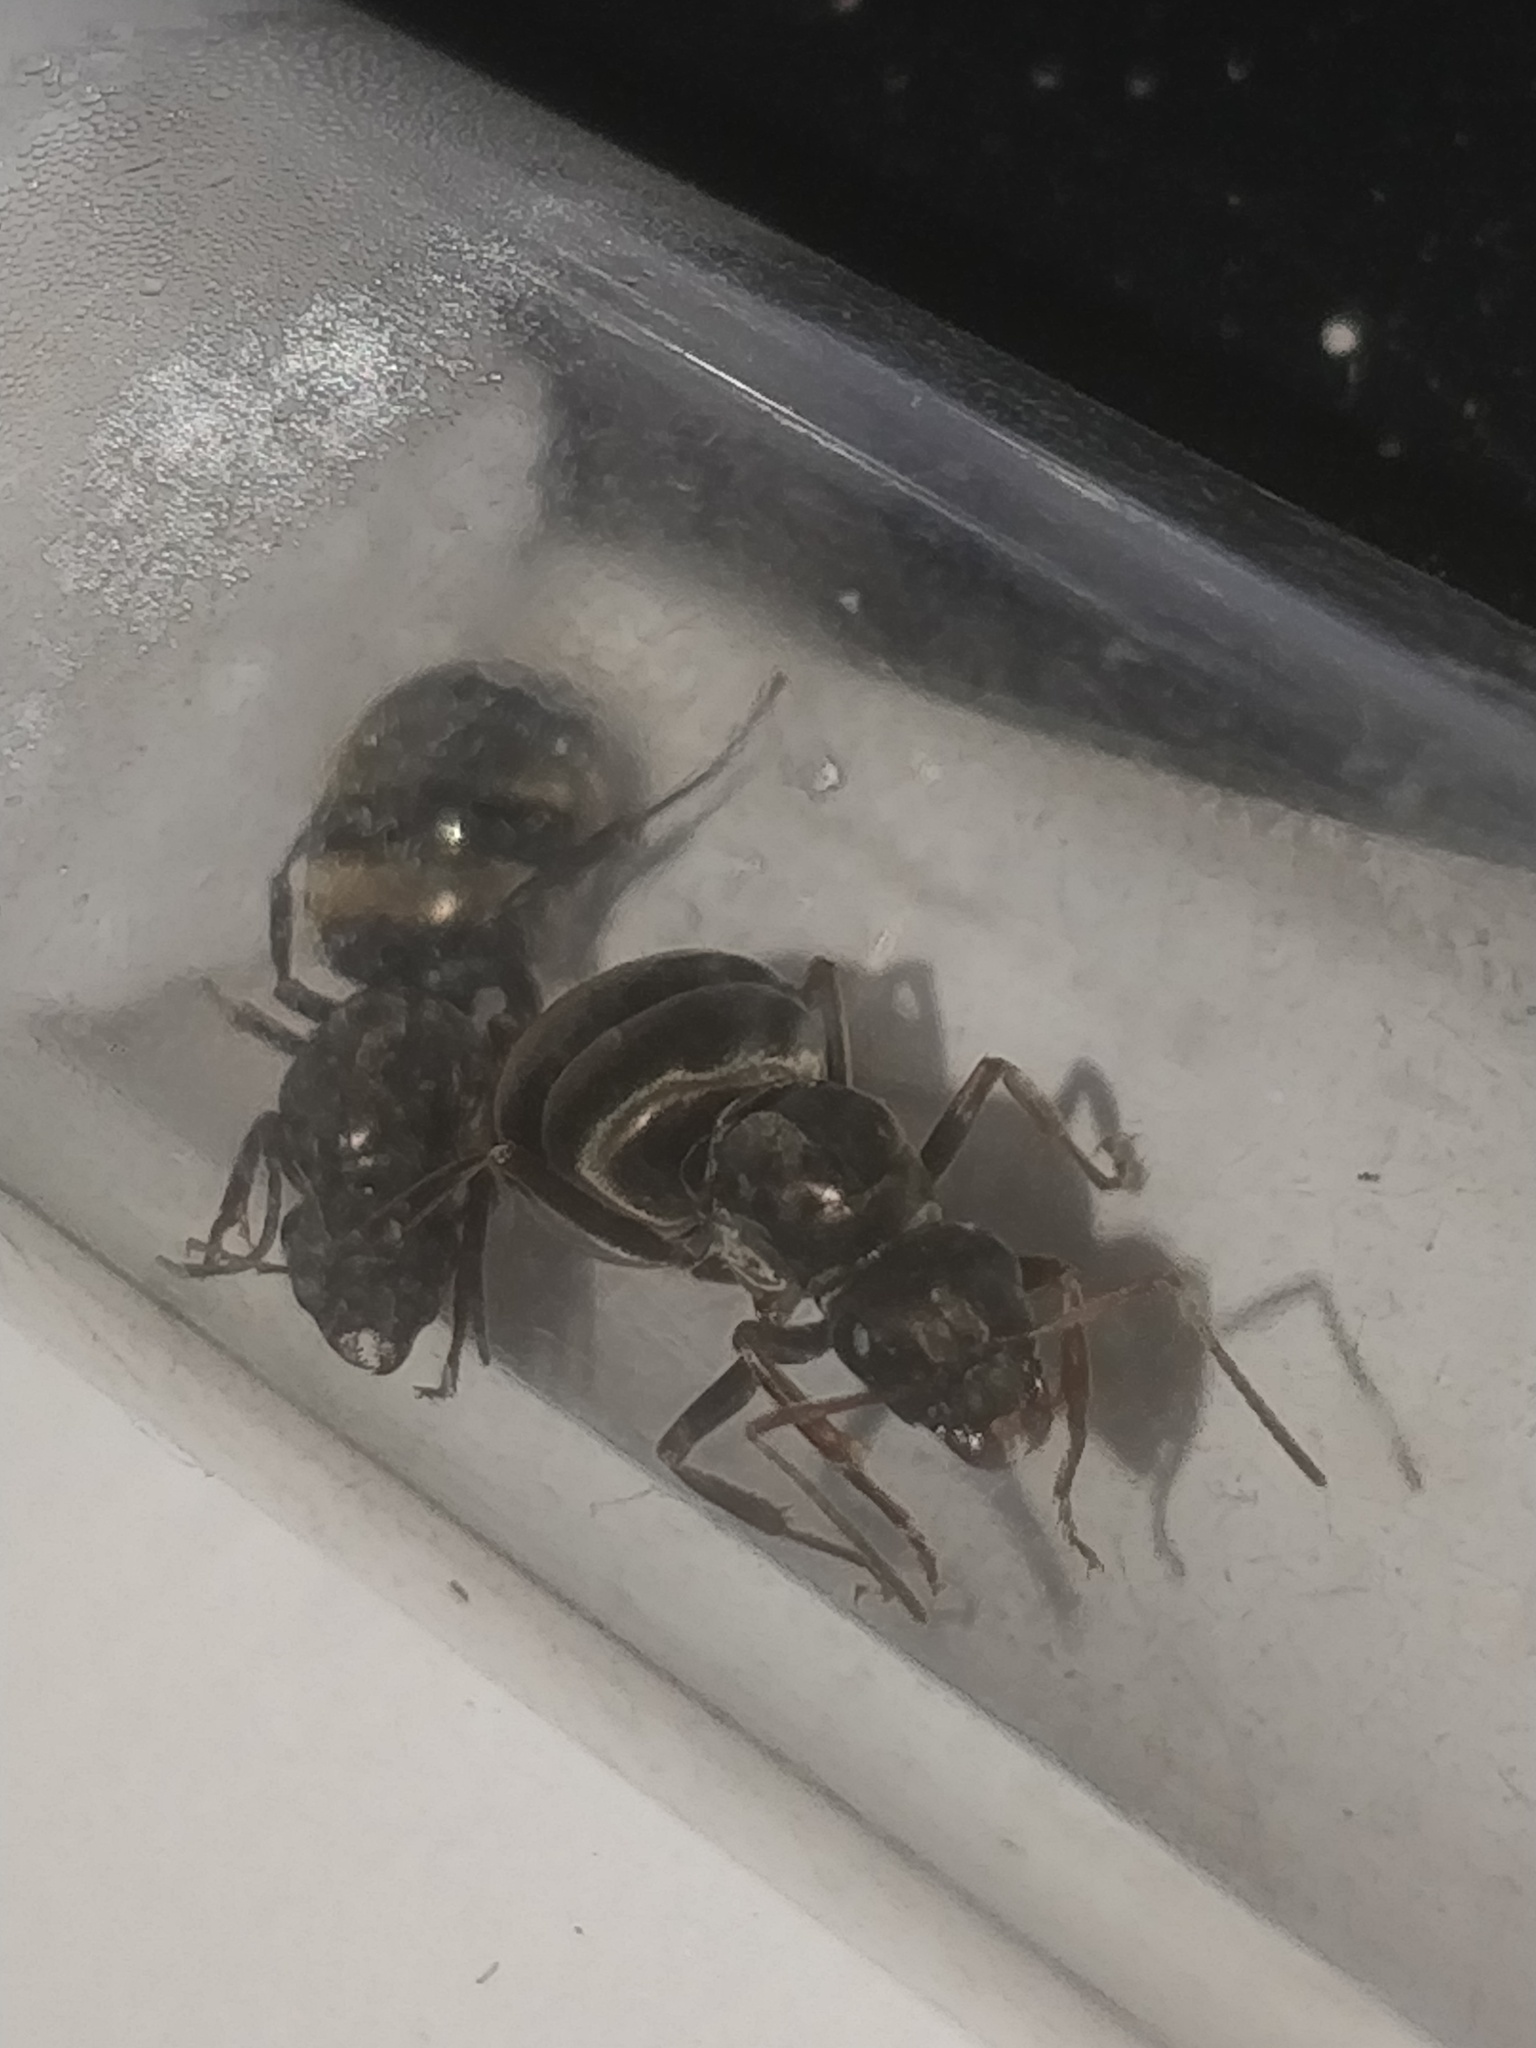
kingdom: Animalia
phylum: Arthropoda
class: Insecta
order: Hymenoptera
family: Formicidae
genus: Formica
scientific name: Formica subsericea
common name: Silky field ant
